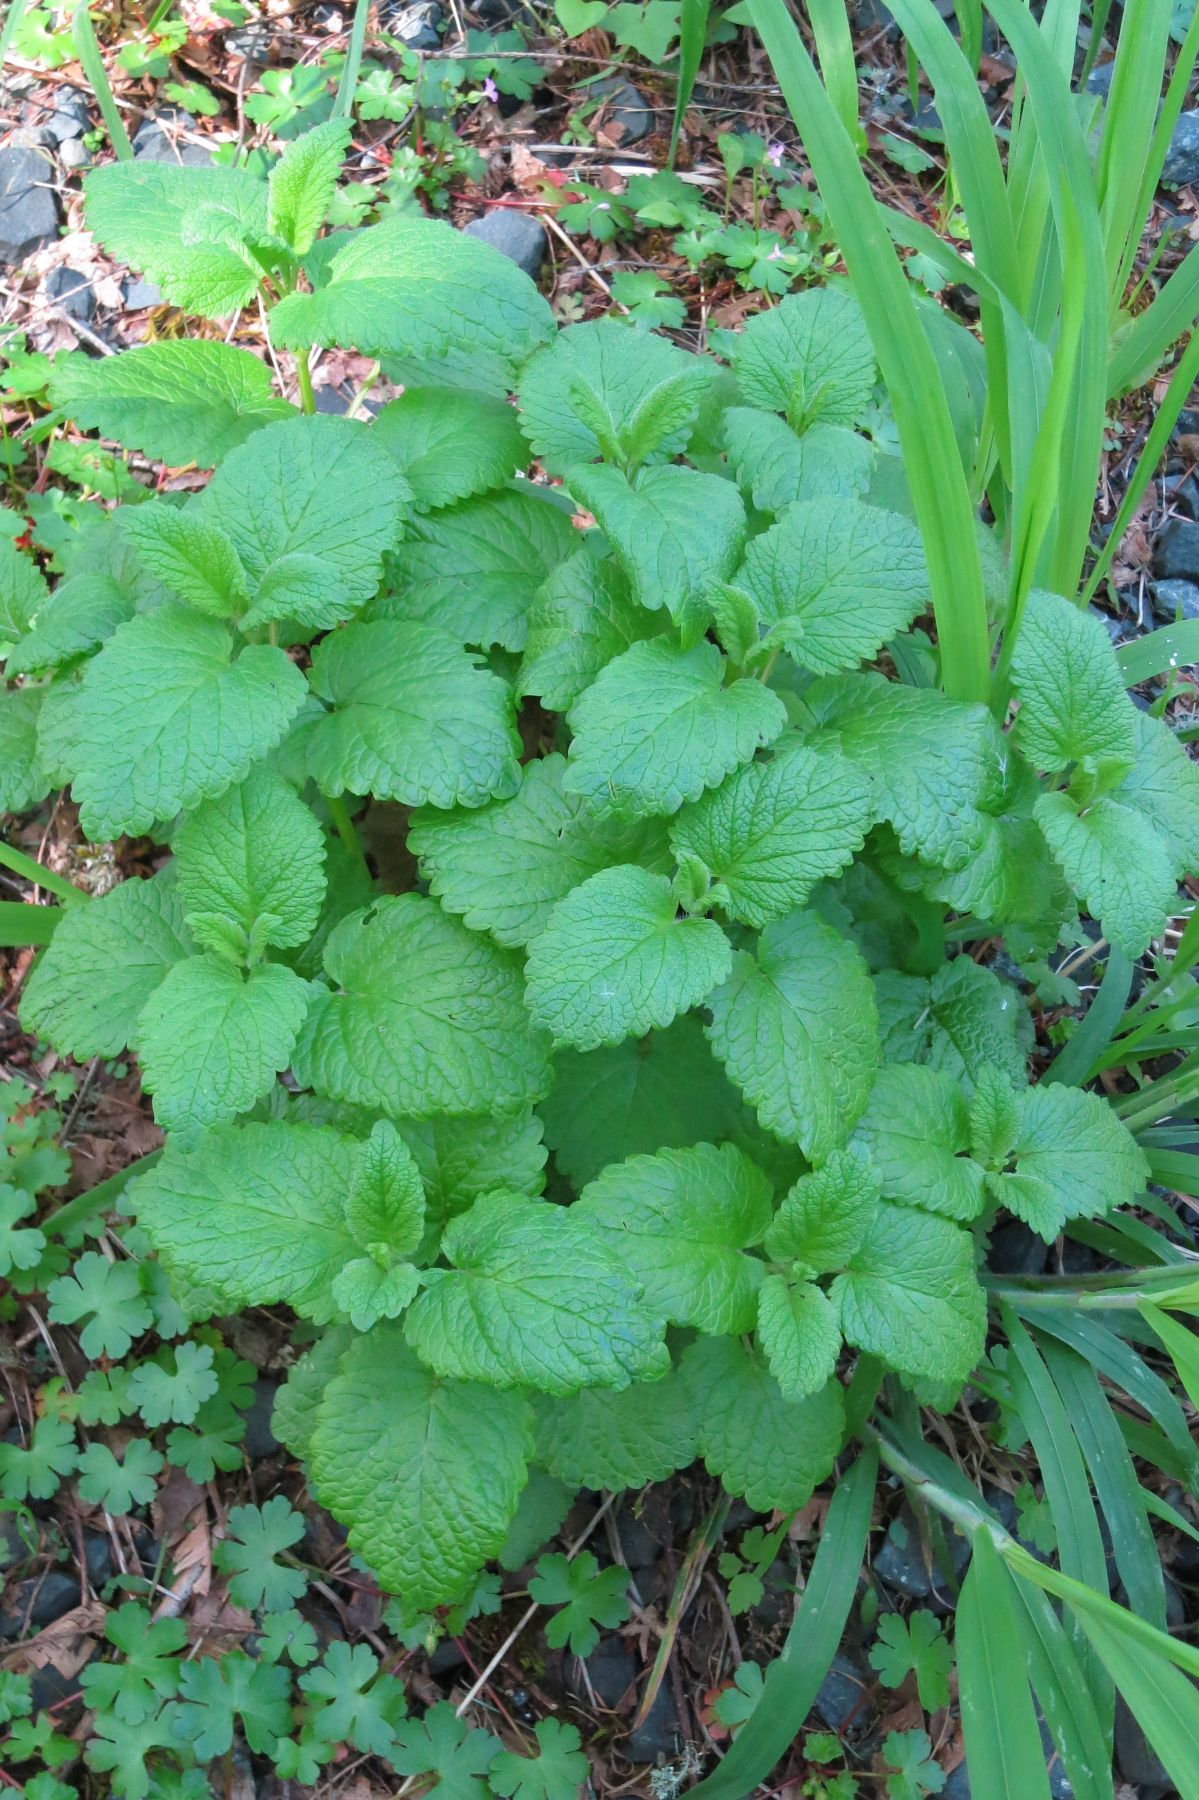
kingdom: Plantae
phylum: Tracheophyta
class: Magnoliopsida
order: Lamiales
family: Lamiaceae
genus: Melissa
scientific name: Melissa officinalis
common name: Balm
